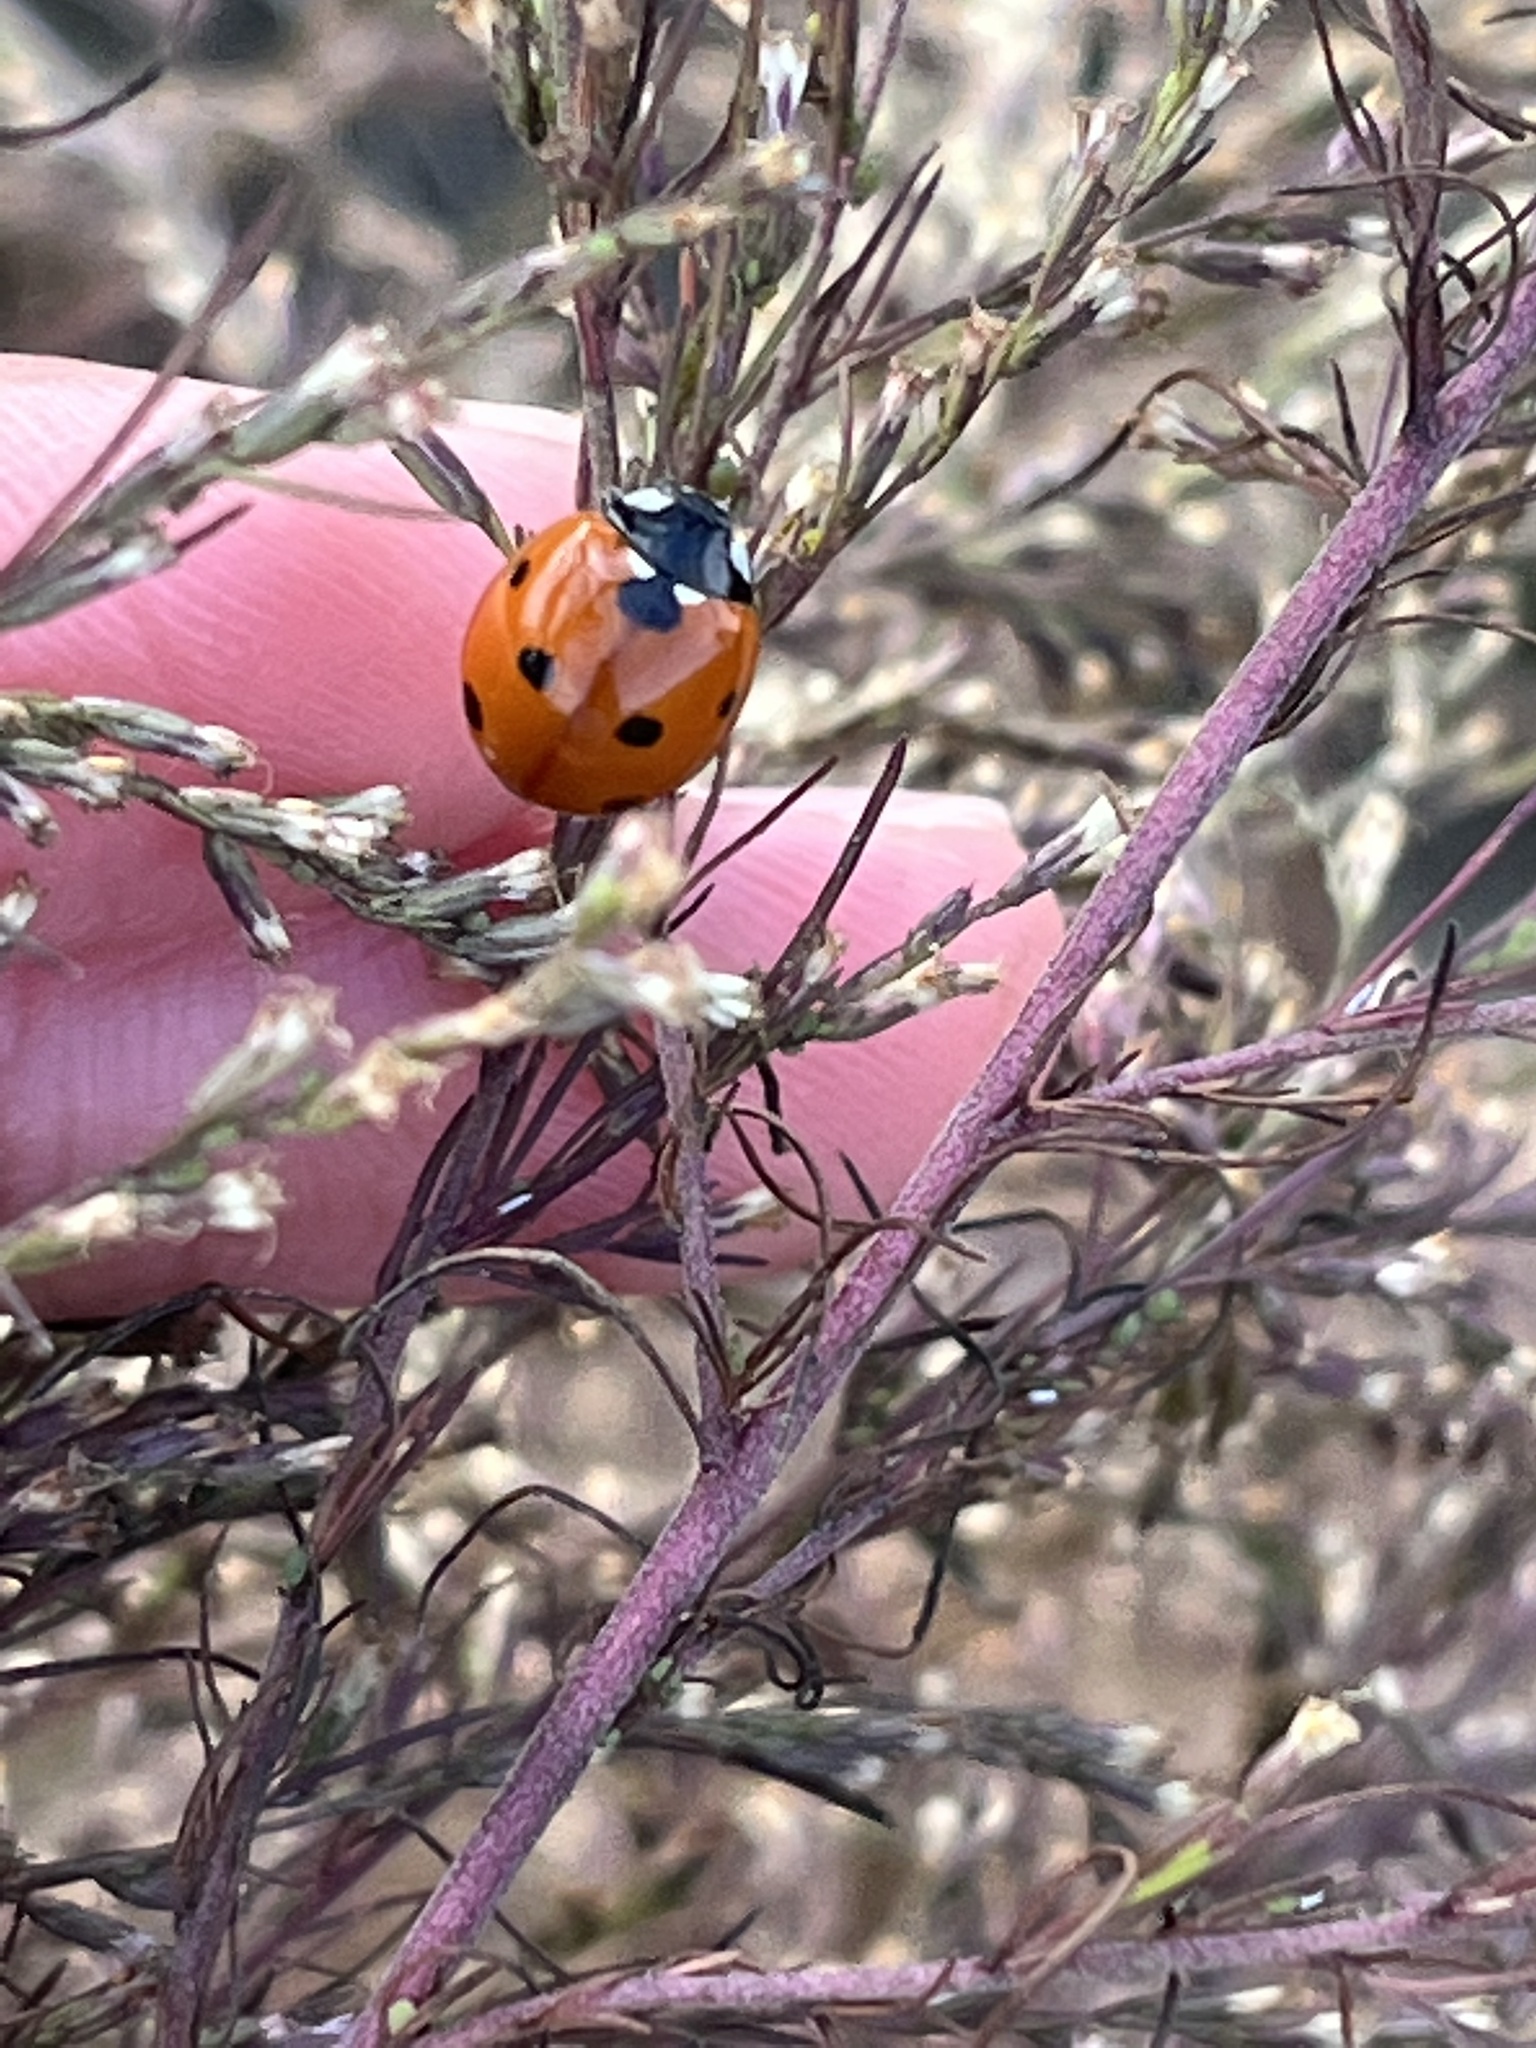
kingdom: Animalia
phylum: Arthropoda
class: Insecta
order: Coleoptera
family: Coccinellidae
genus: Coccinella
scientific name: Coccinella septempunctata
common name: Sevenspotted lady beetle
